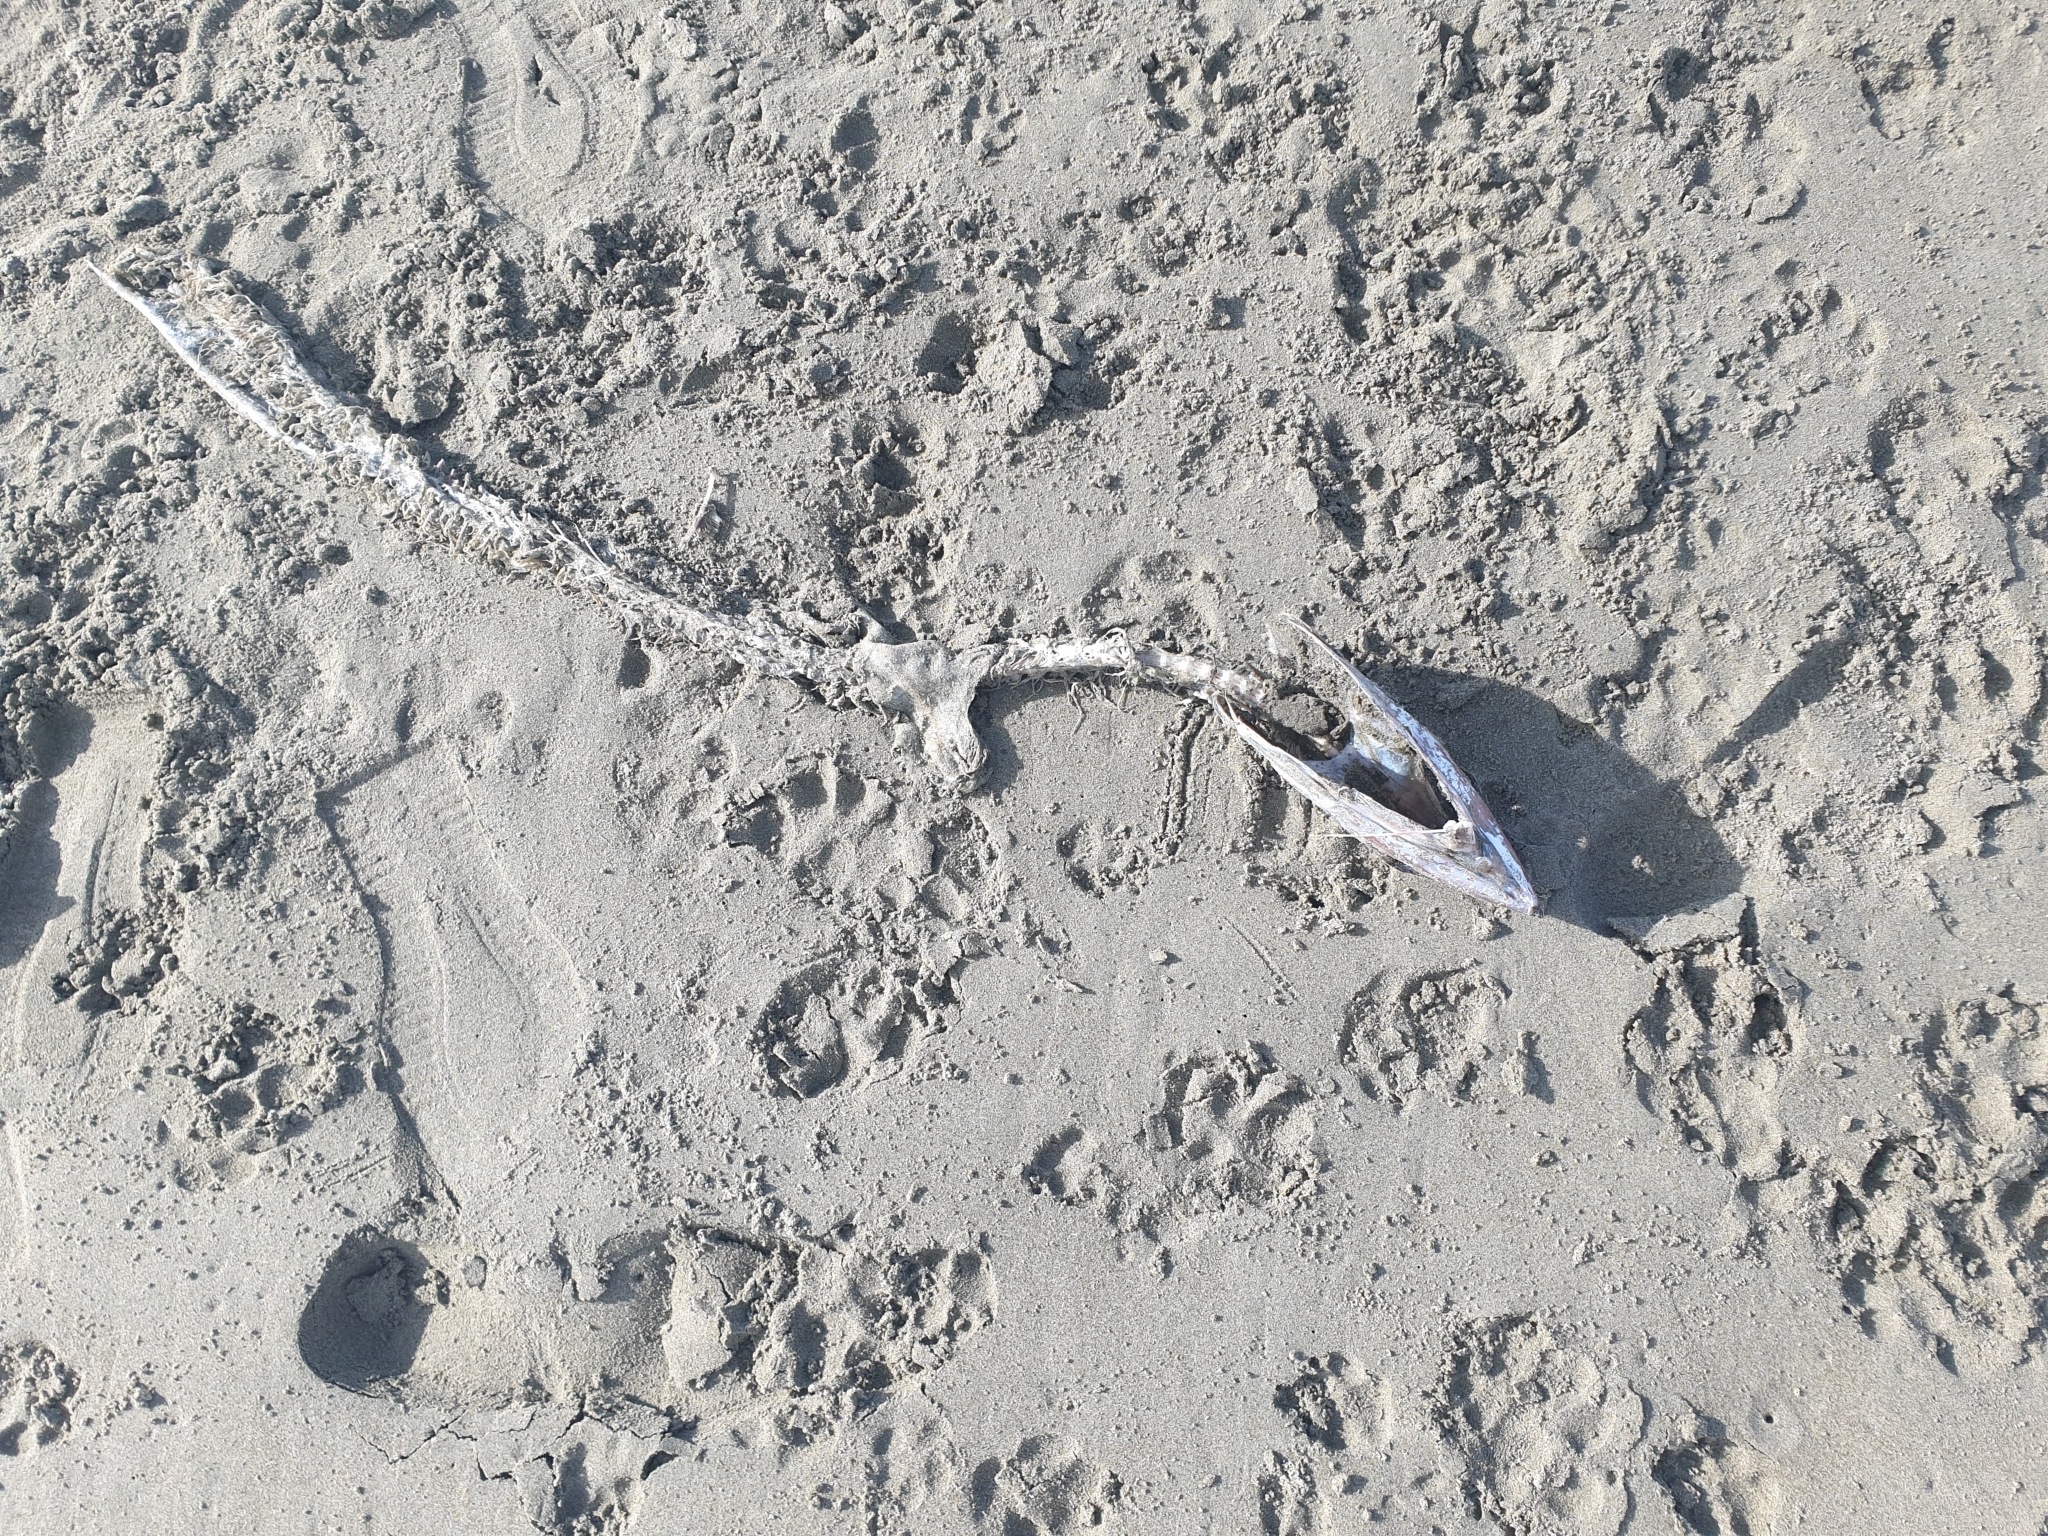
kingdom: Animalia
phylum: Chordata
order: Perciformes
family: Gempylidae
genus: Thyrsites
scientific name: Thyrsites atun
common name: Snoek
